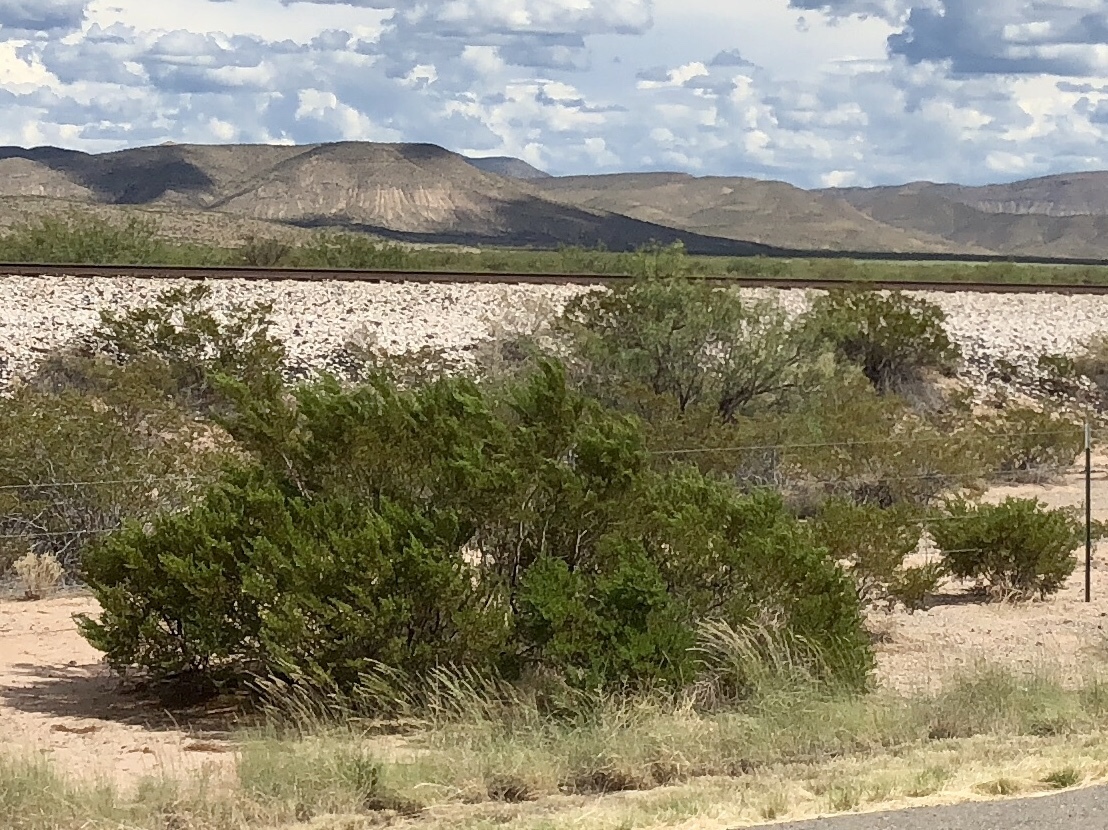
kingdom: Plantae
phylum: Tracheophyta
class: Magnoliopsida
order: Zygophyllales
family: Zygophyllaceae
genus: Larrea
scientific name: Larrea tridentata
